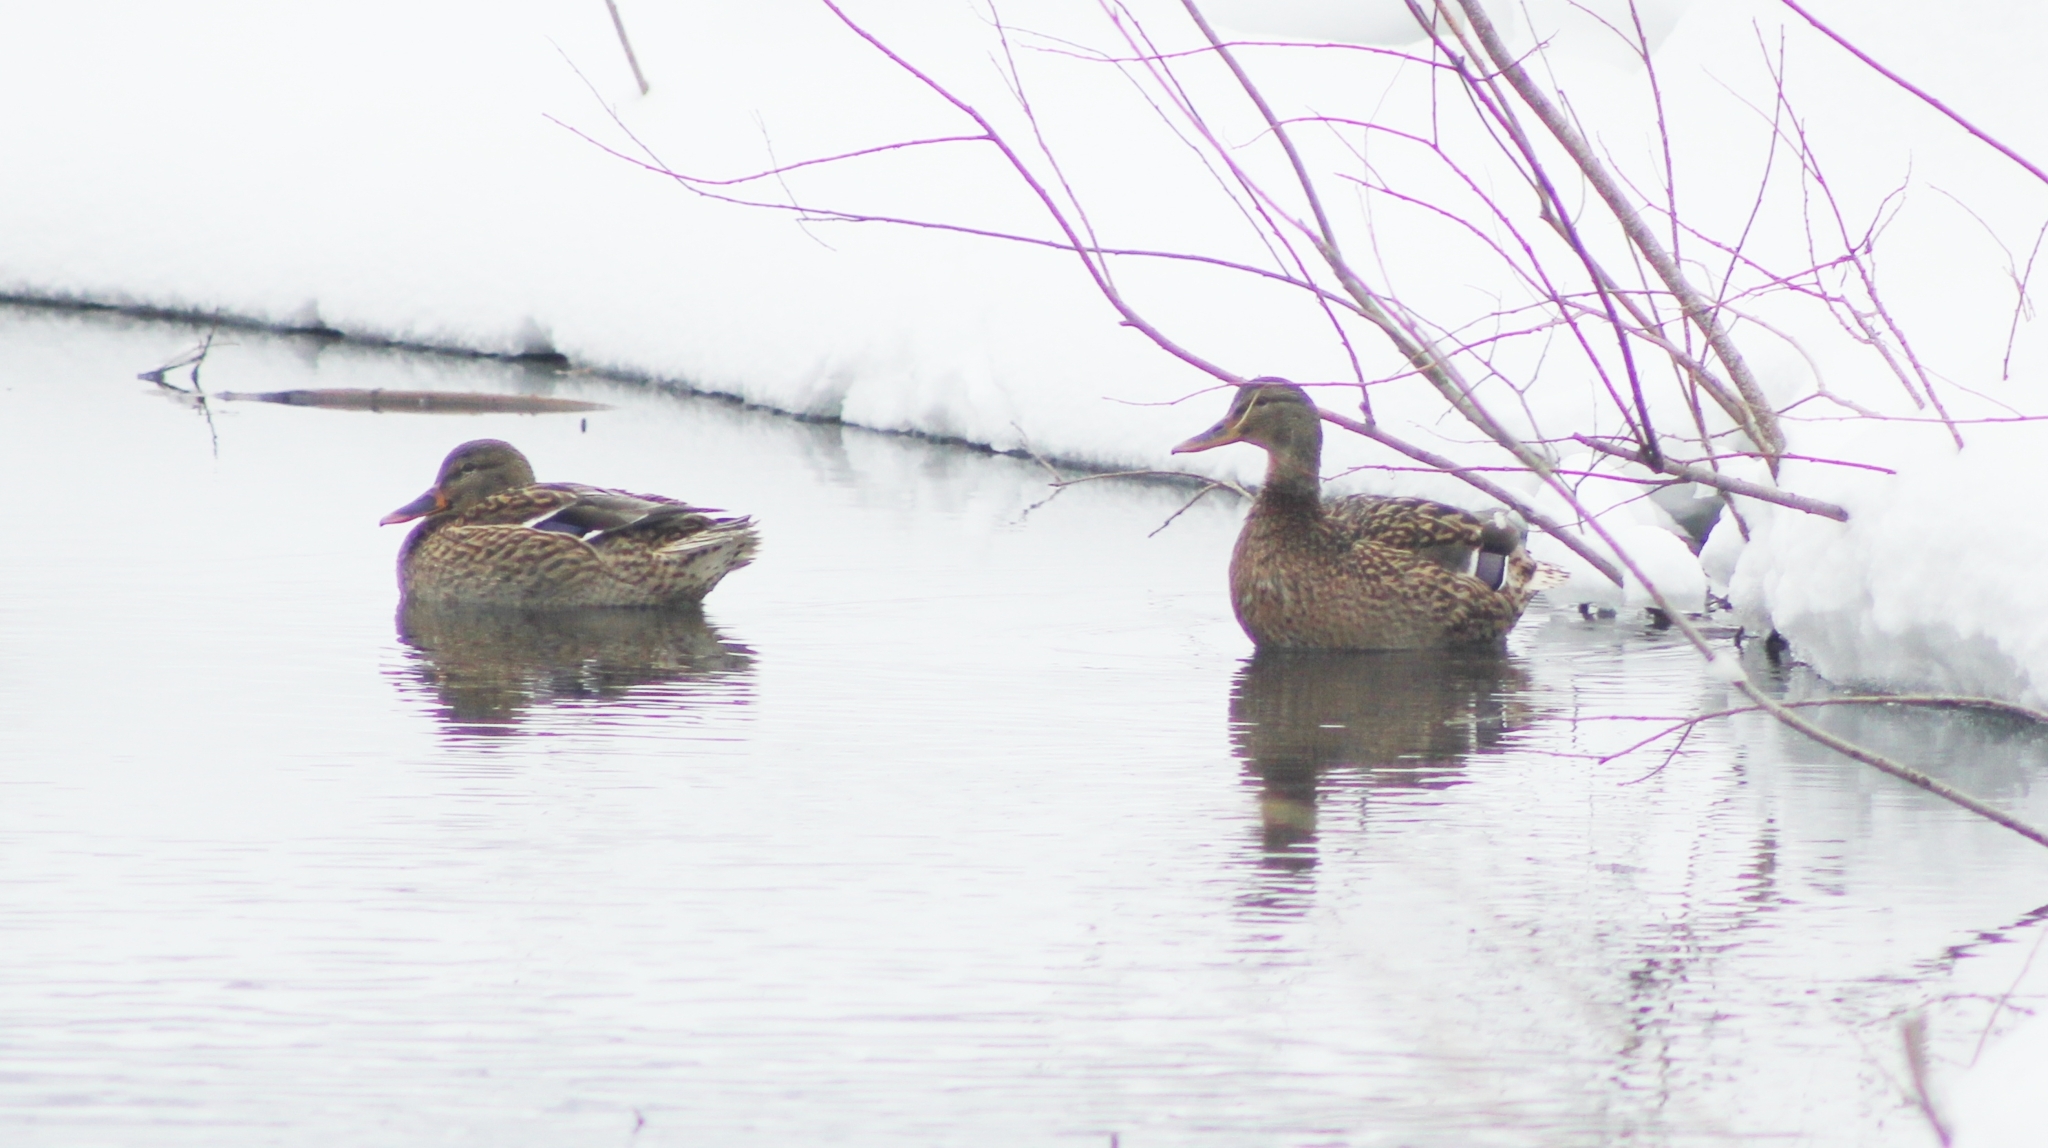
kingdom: Animalia
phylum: Chordata
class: Aves
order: Anseriformes
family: Anatidae
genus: Anas
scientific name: Anas platyrhynchos
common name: Mallard
